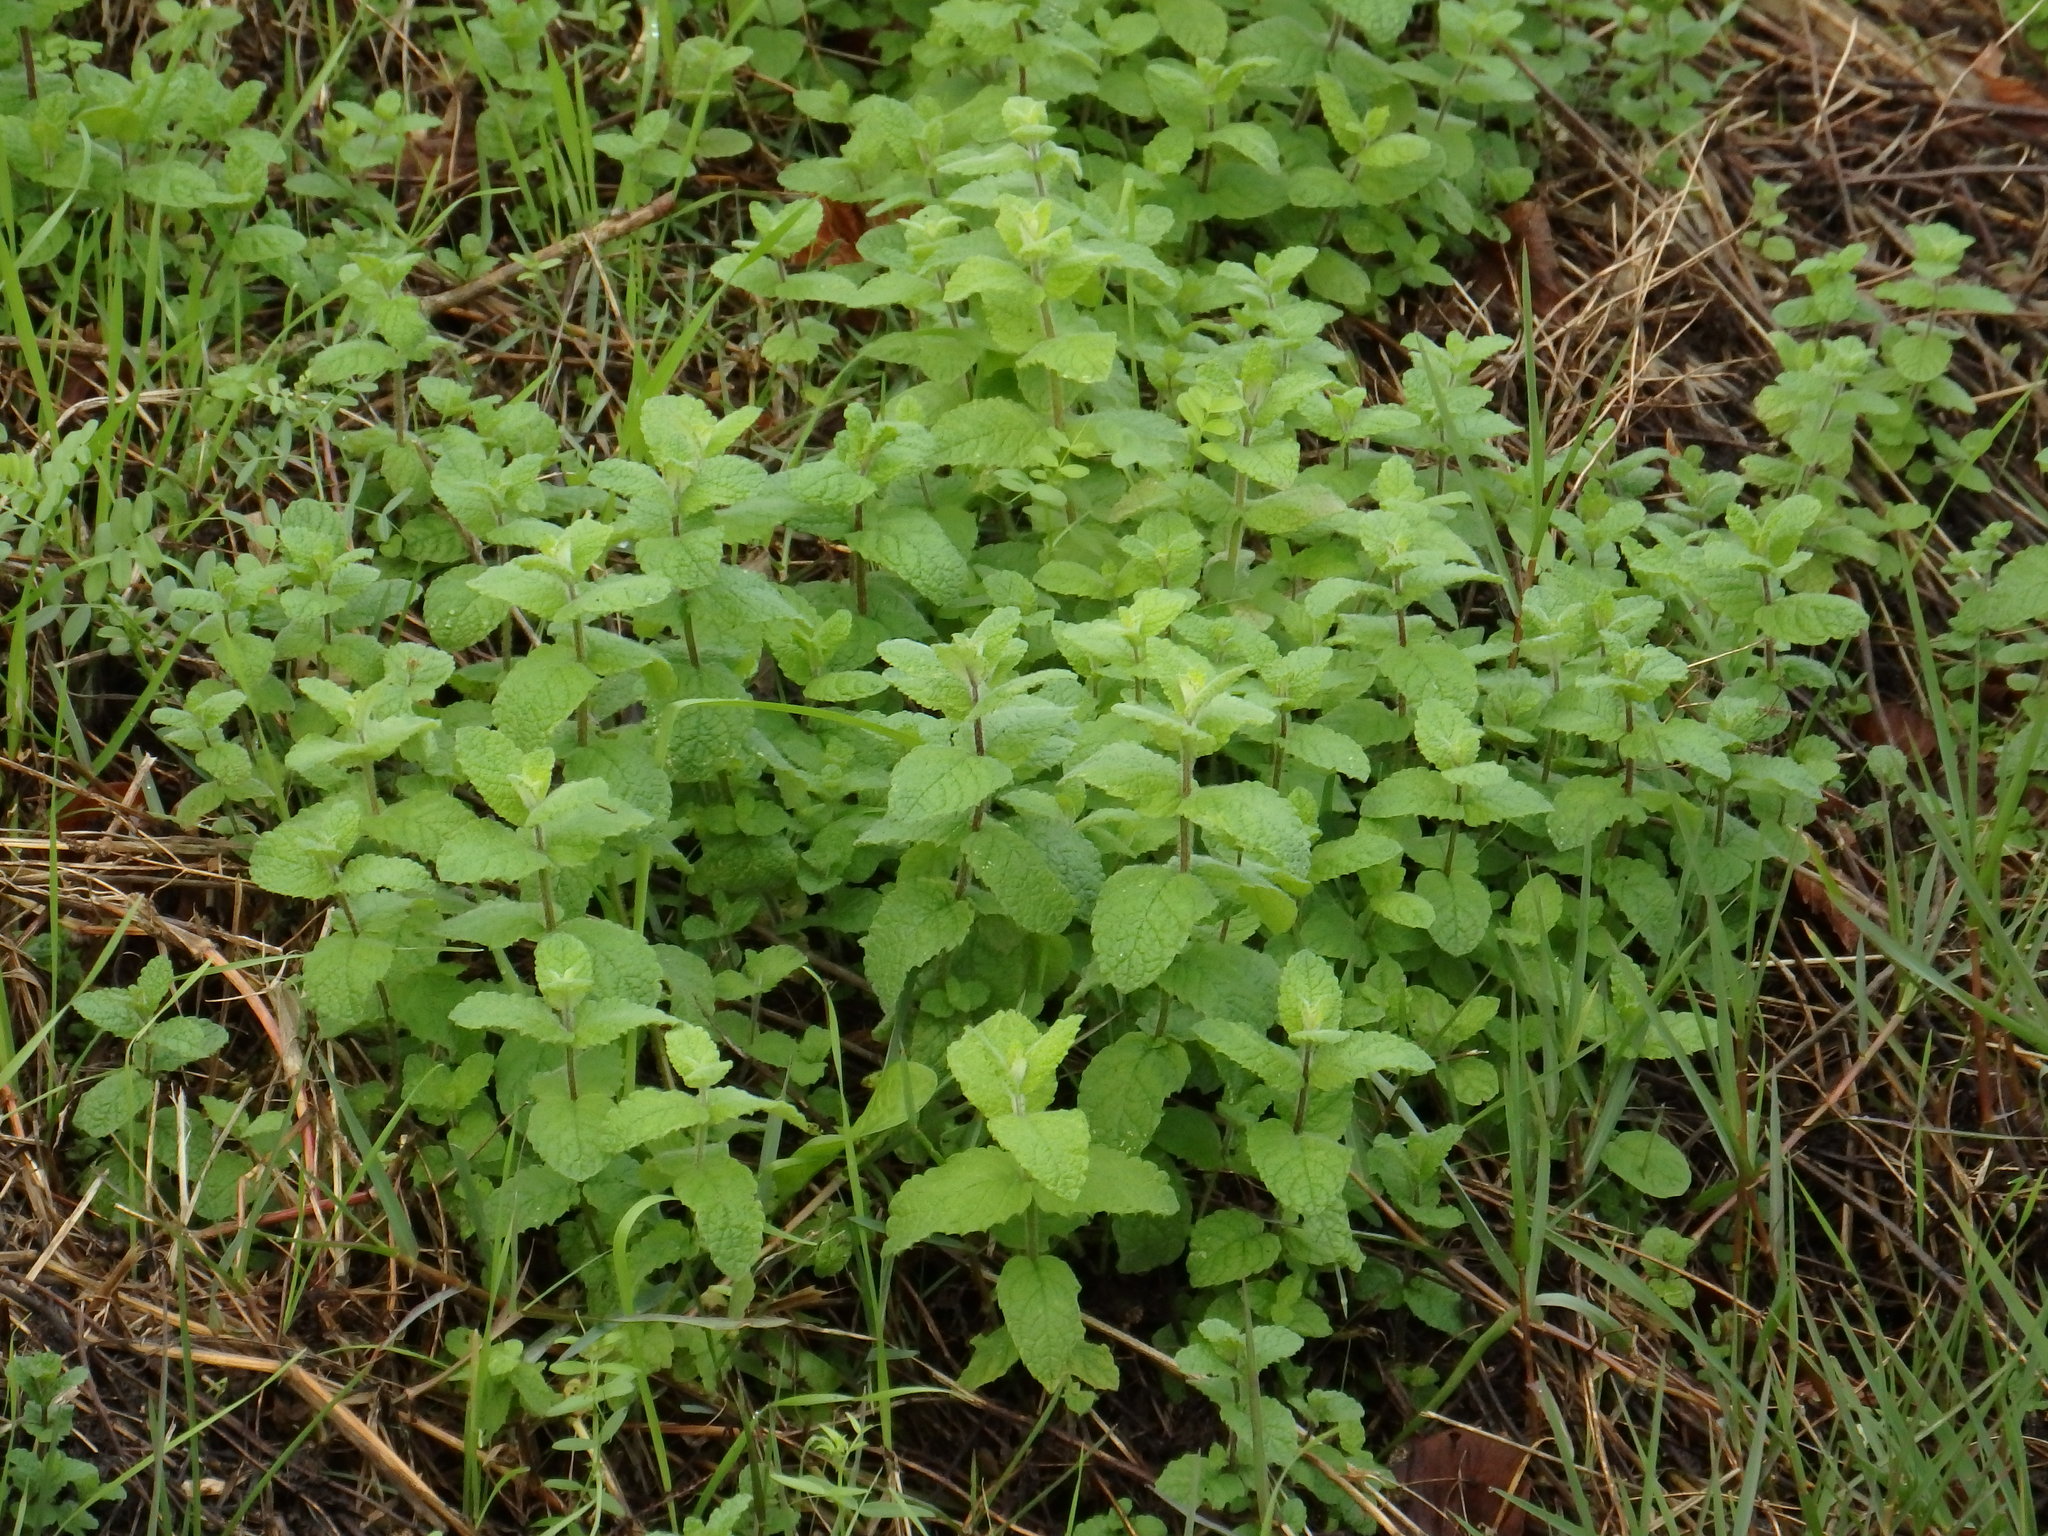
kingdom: Plantae
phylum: Tracheophyta
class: Magnoliopsida
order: Lamiales
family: Lamiaceae
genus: Mentha
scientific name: Mentha suaveolens
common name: Apple mint
